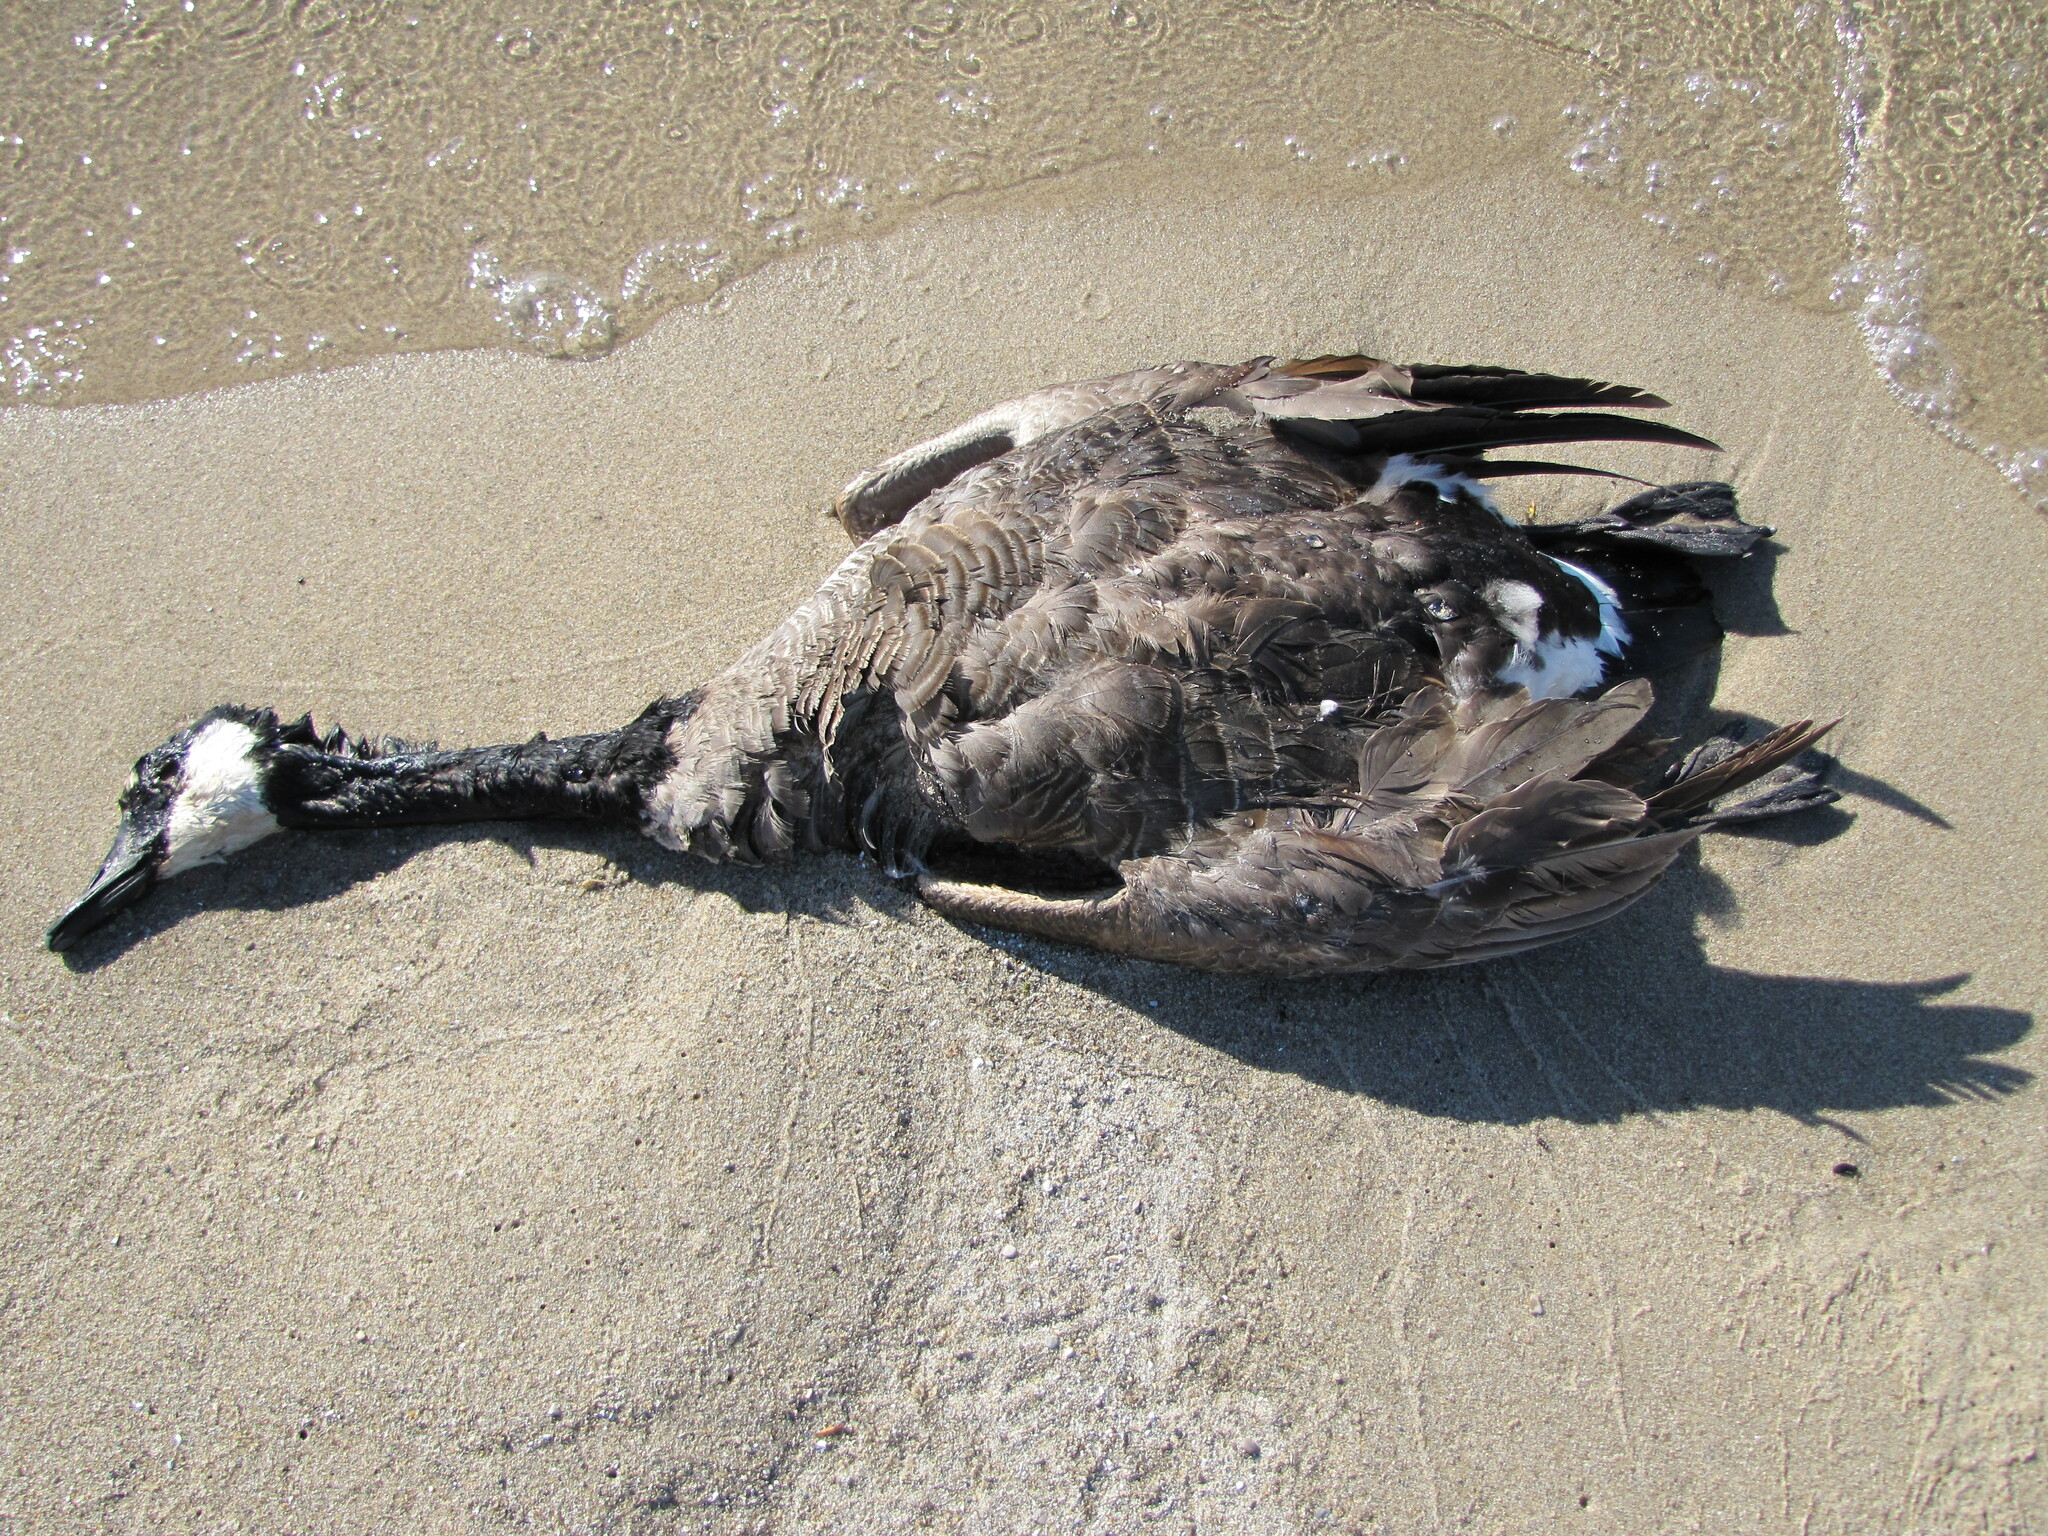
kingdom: Animalia
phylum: Chordata
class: Aves
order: Anseriformes
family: Anatidae
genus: Branta
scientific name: Branta canadensis
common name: Canada goose
